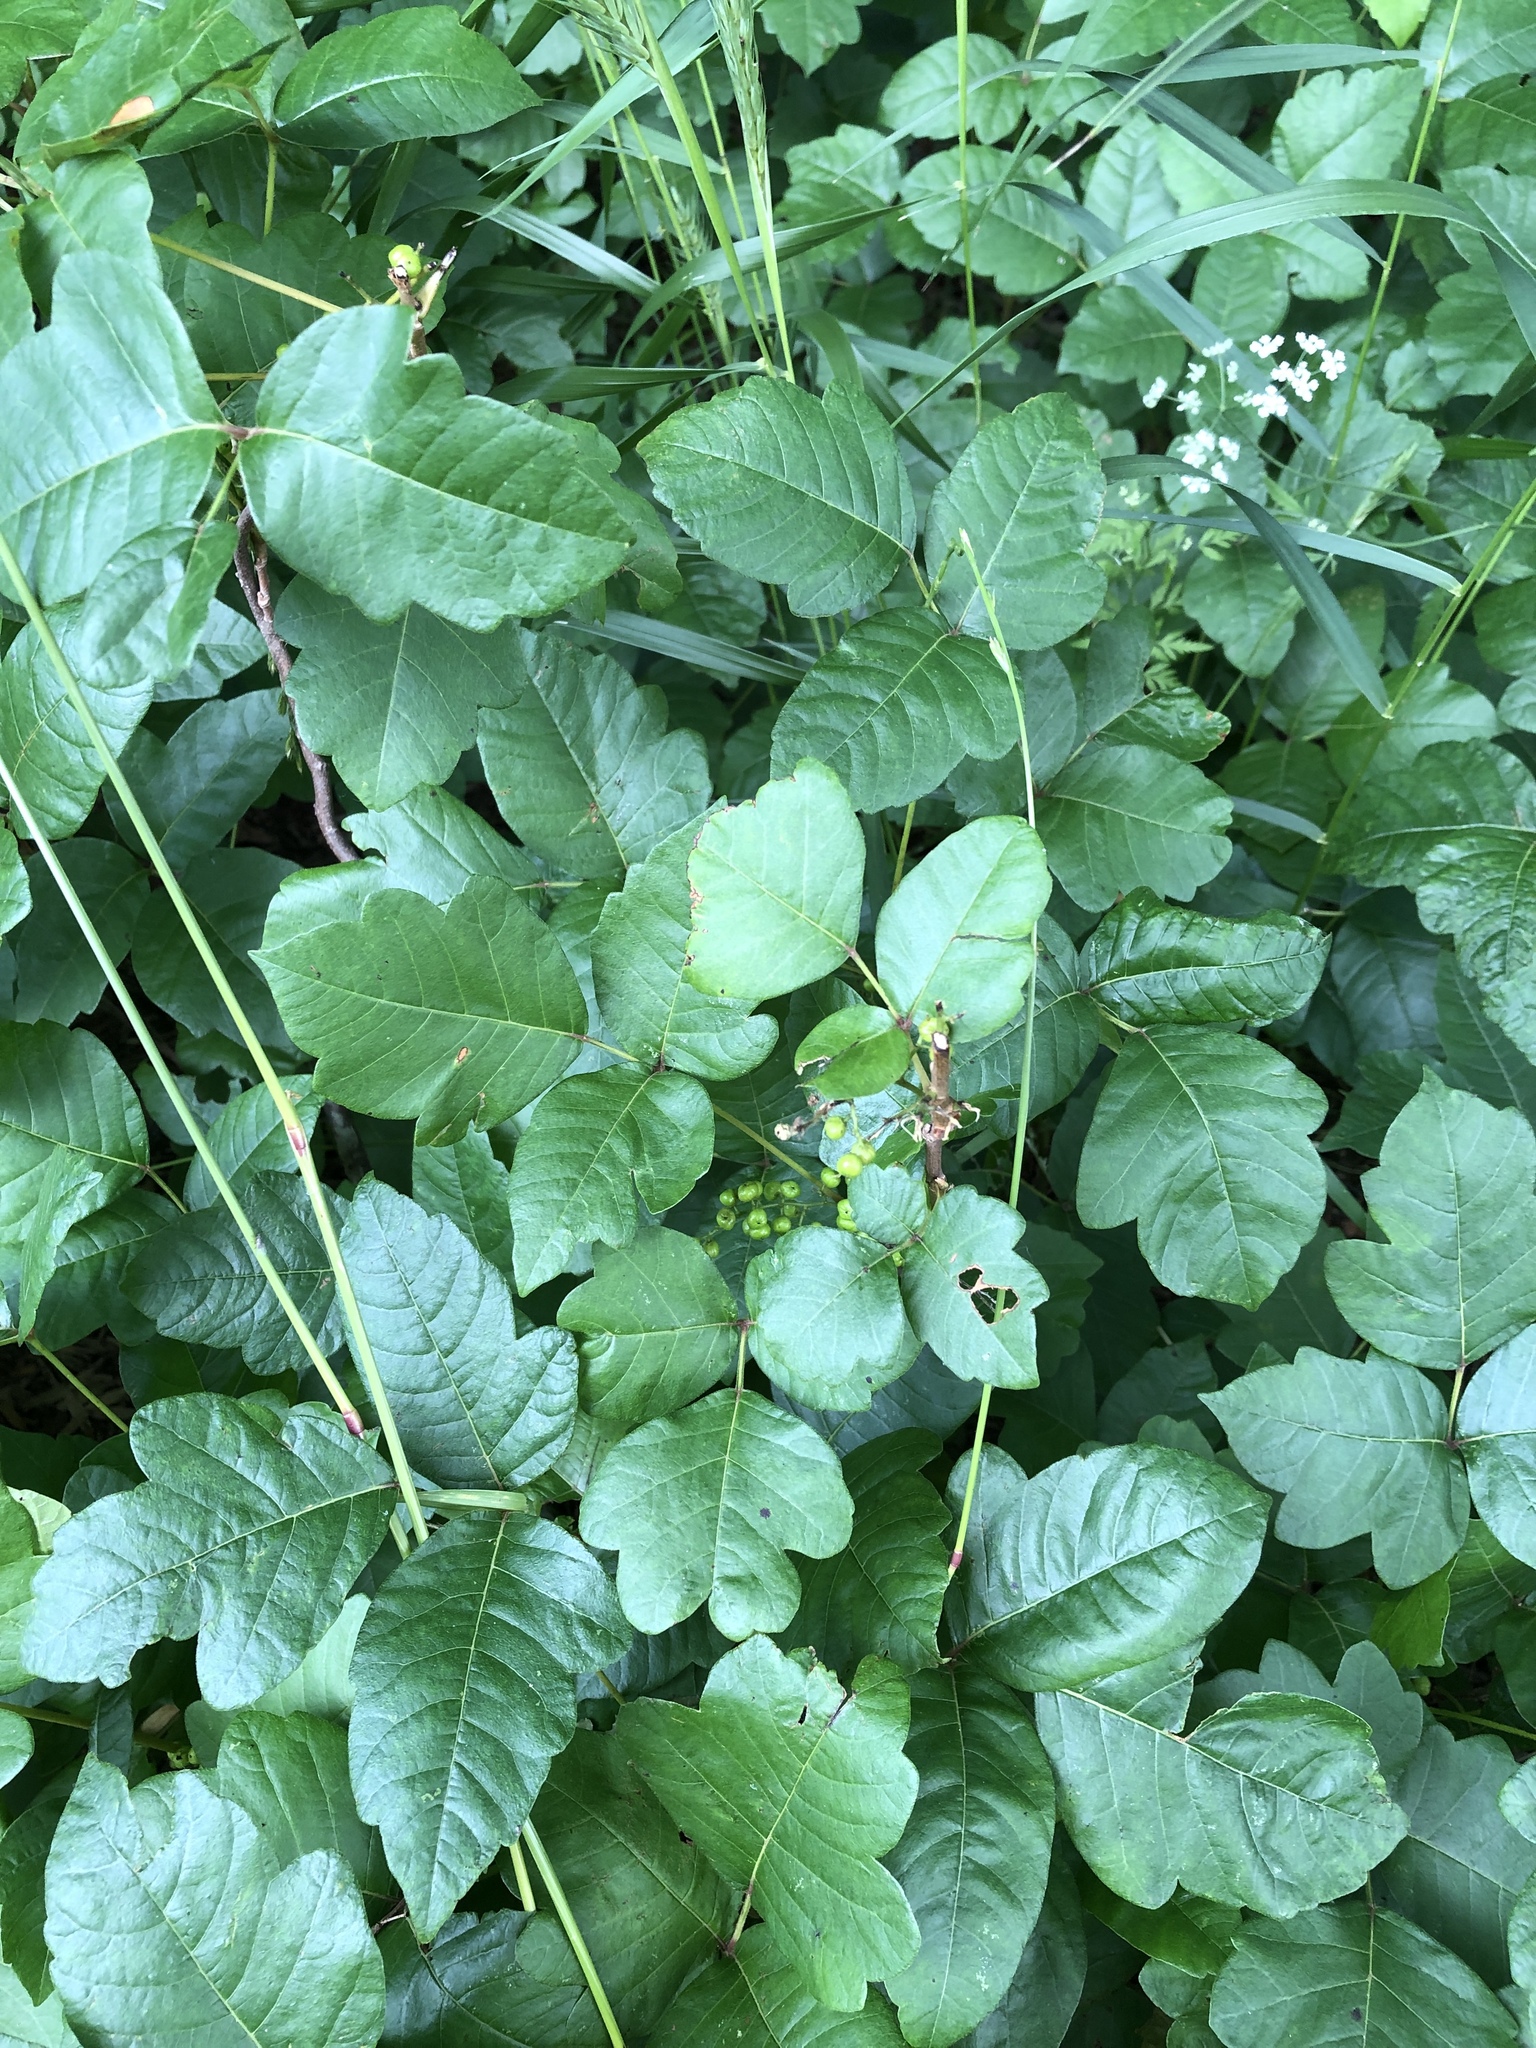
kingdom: Plantae
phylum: Tracheophyta
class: Magnoliopsida
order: Sapindales
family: Anacardiaceae
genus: Toxicodendron
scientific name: Toxicodendron radicans
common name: Poison ivy
